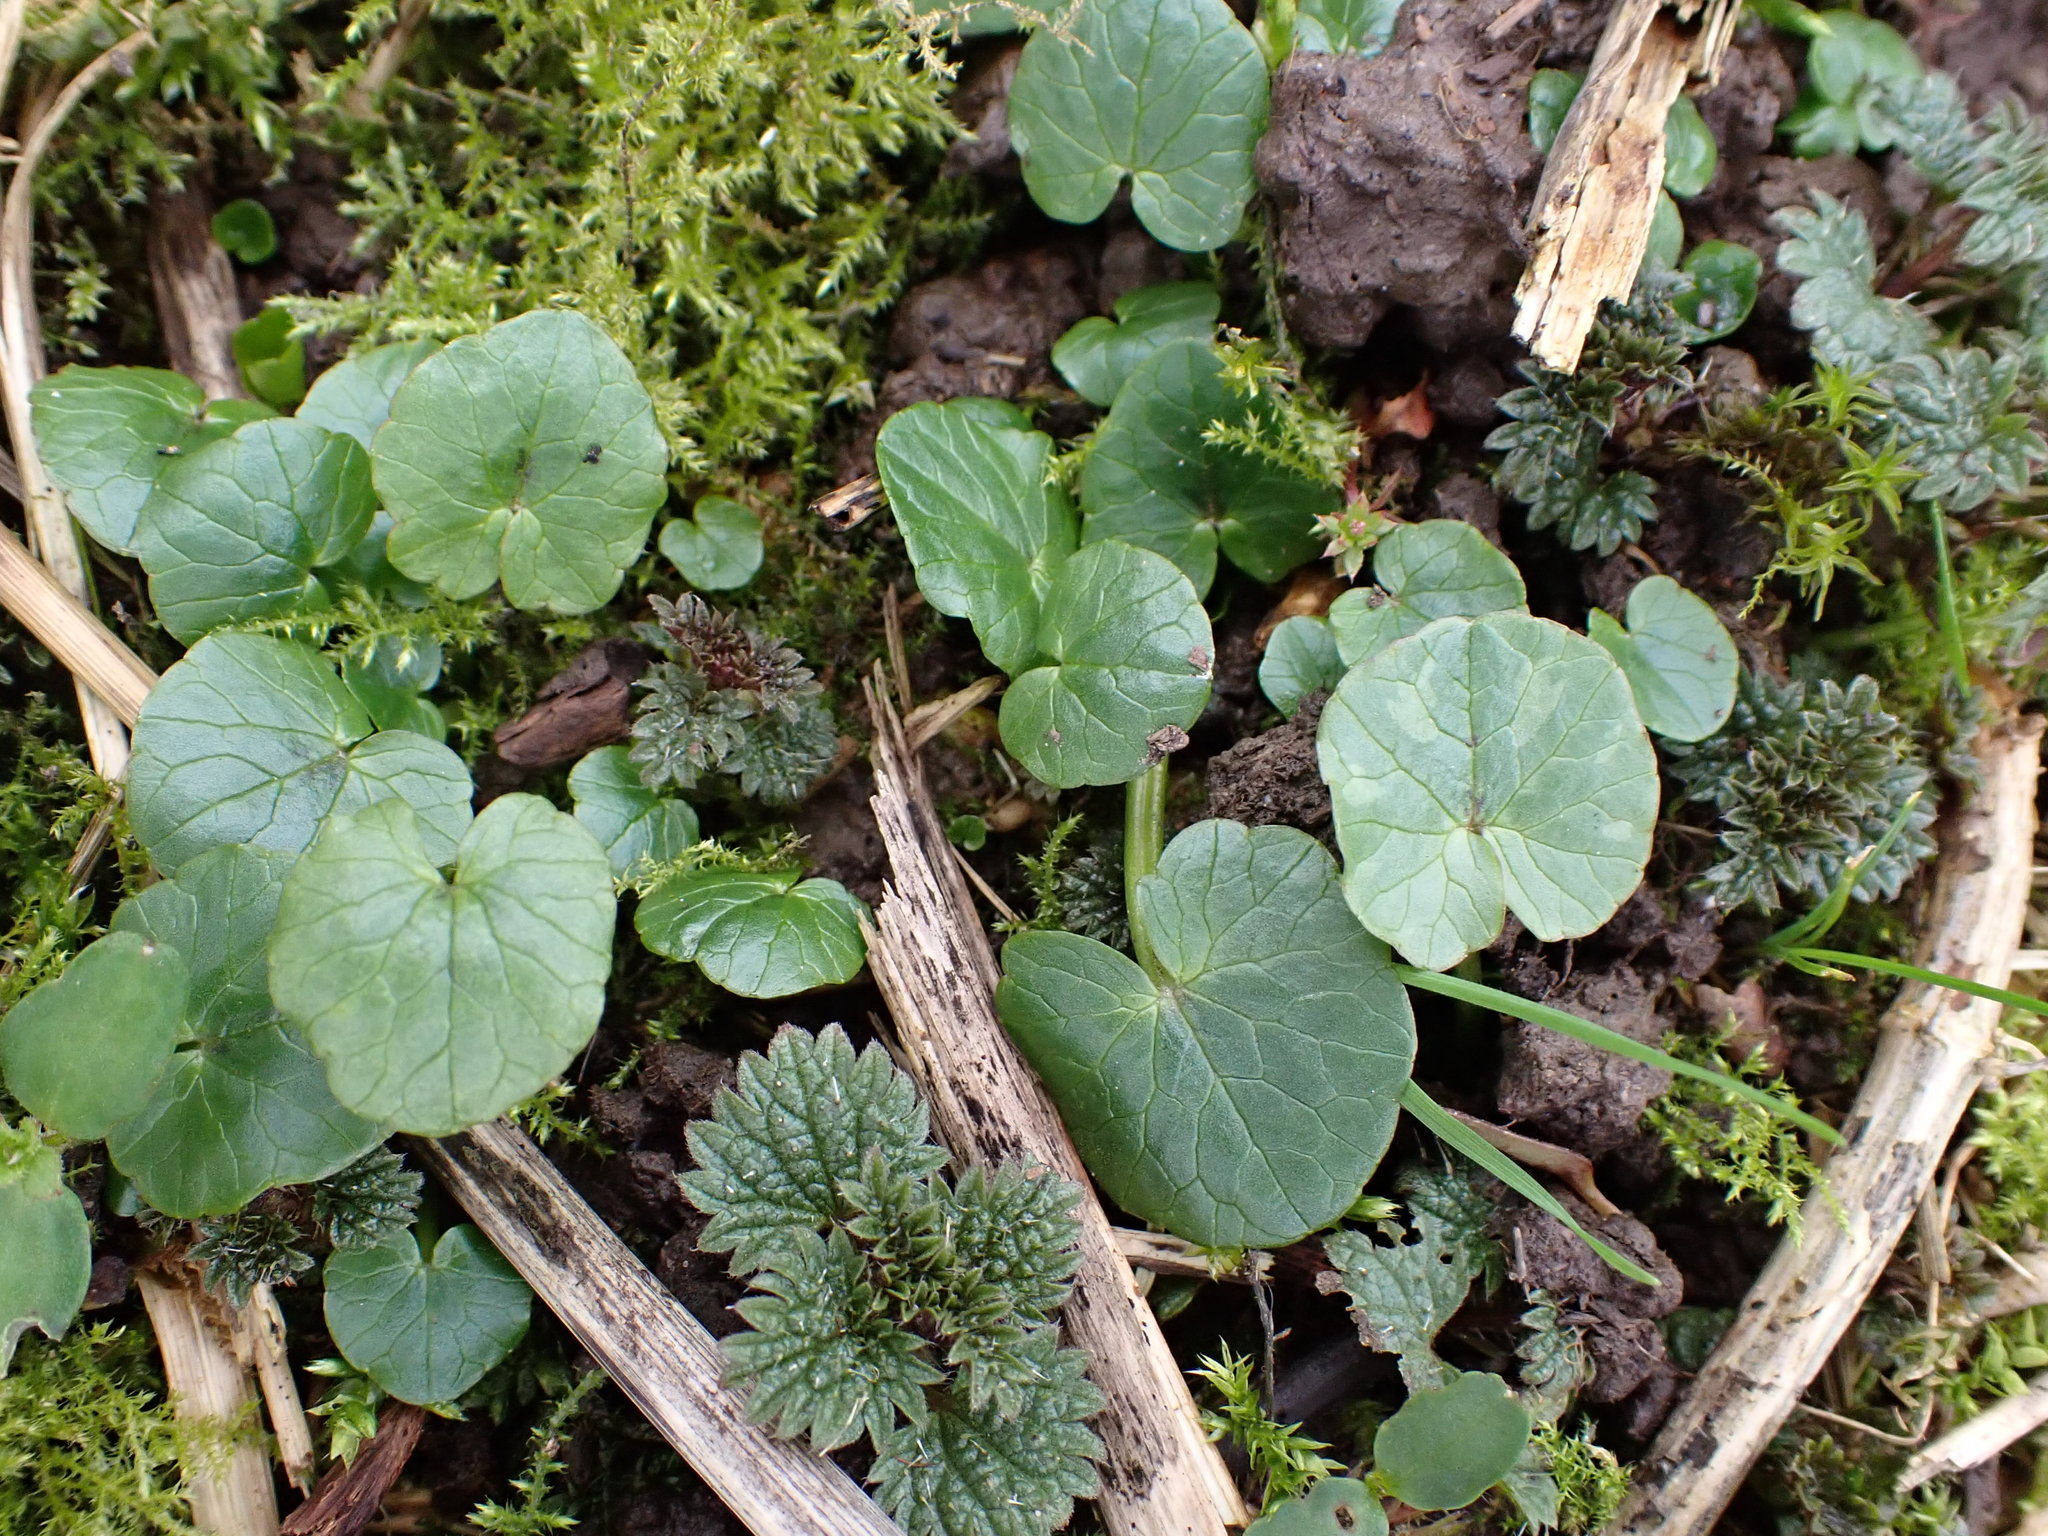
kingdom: Plantae
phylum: Tracheophyta
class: Magnoliopsida
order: Ranunculales
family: Ranunculaceae
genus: Ficaria
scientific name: Ficaria verna
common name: Lesser celandine
